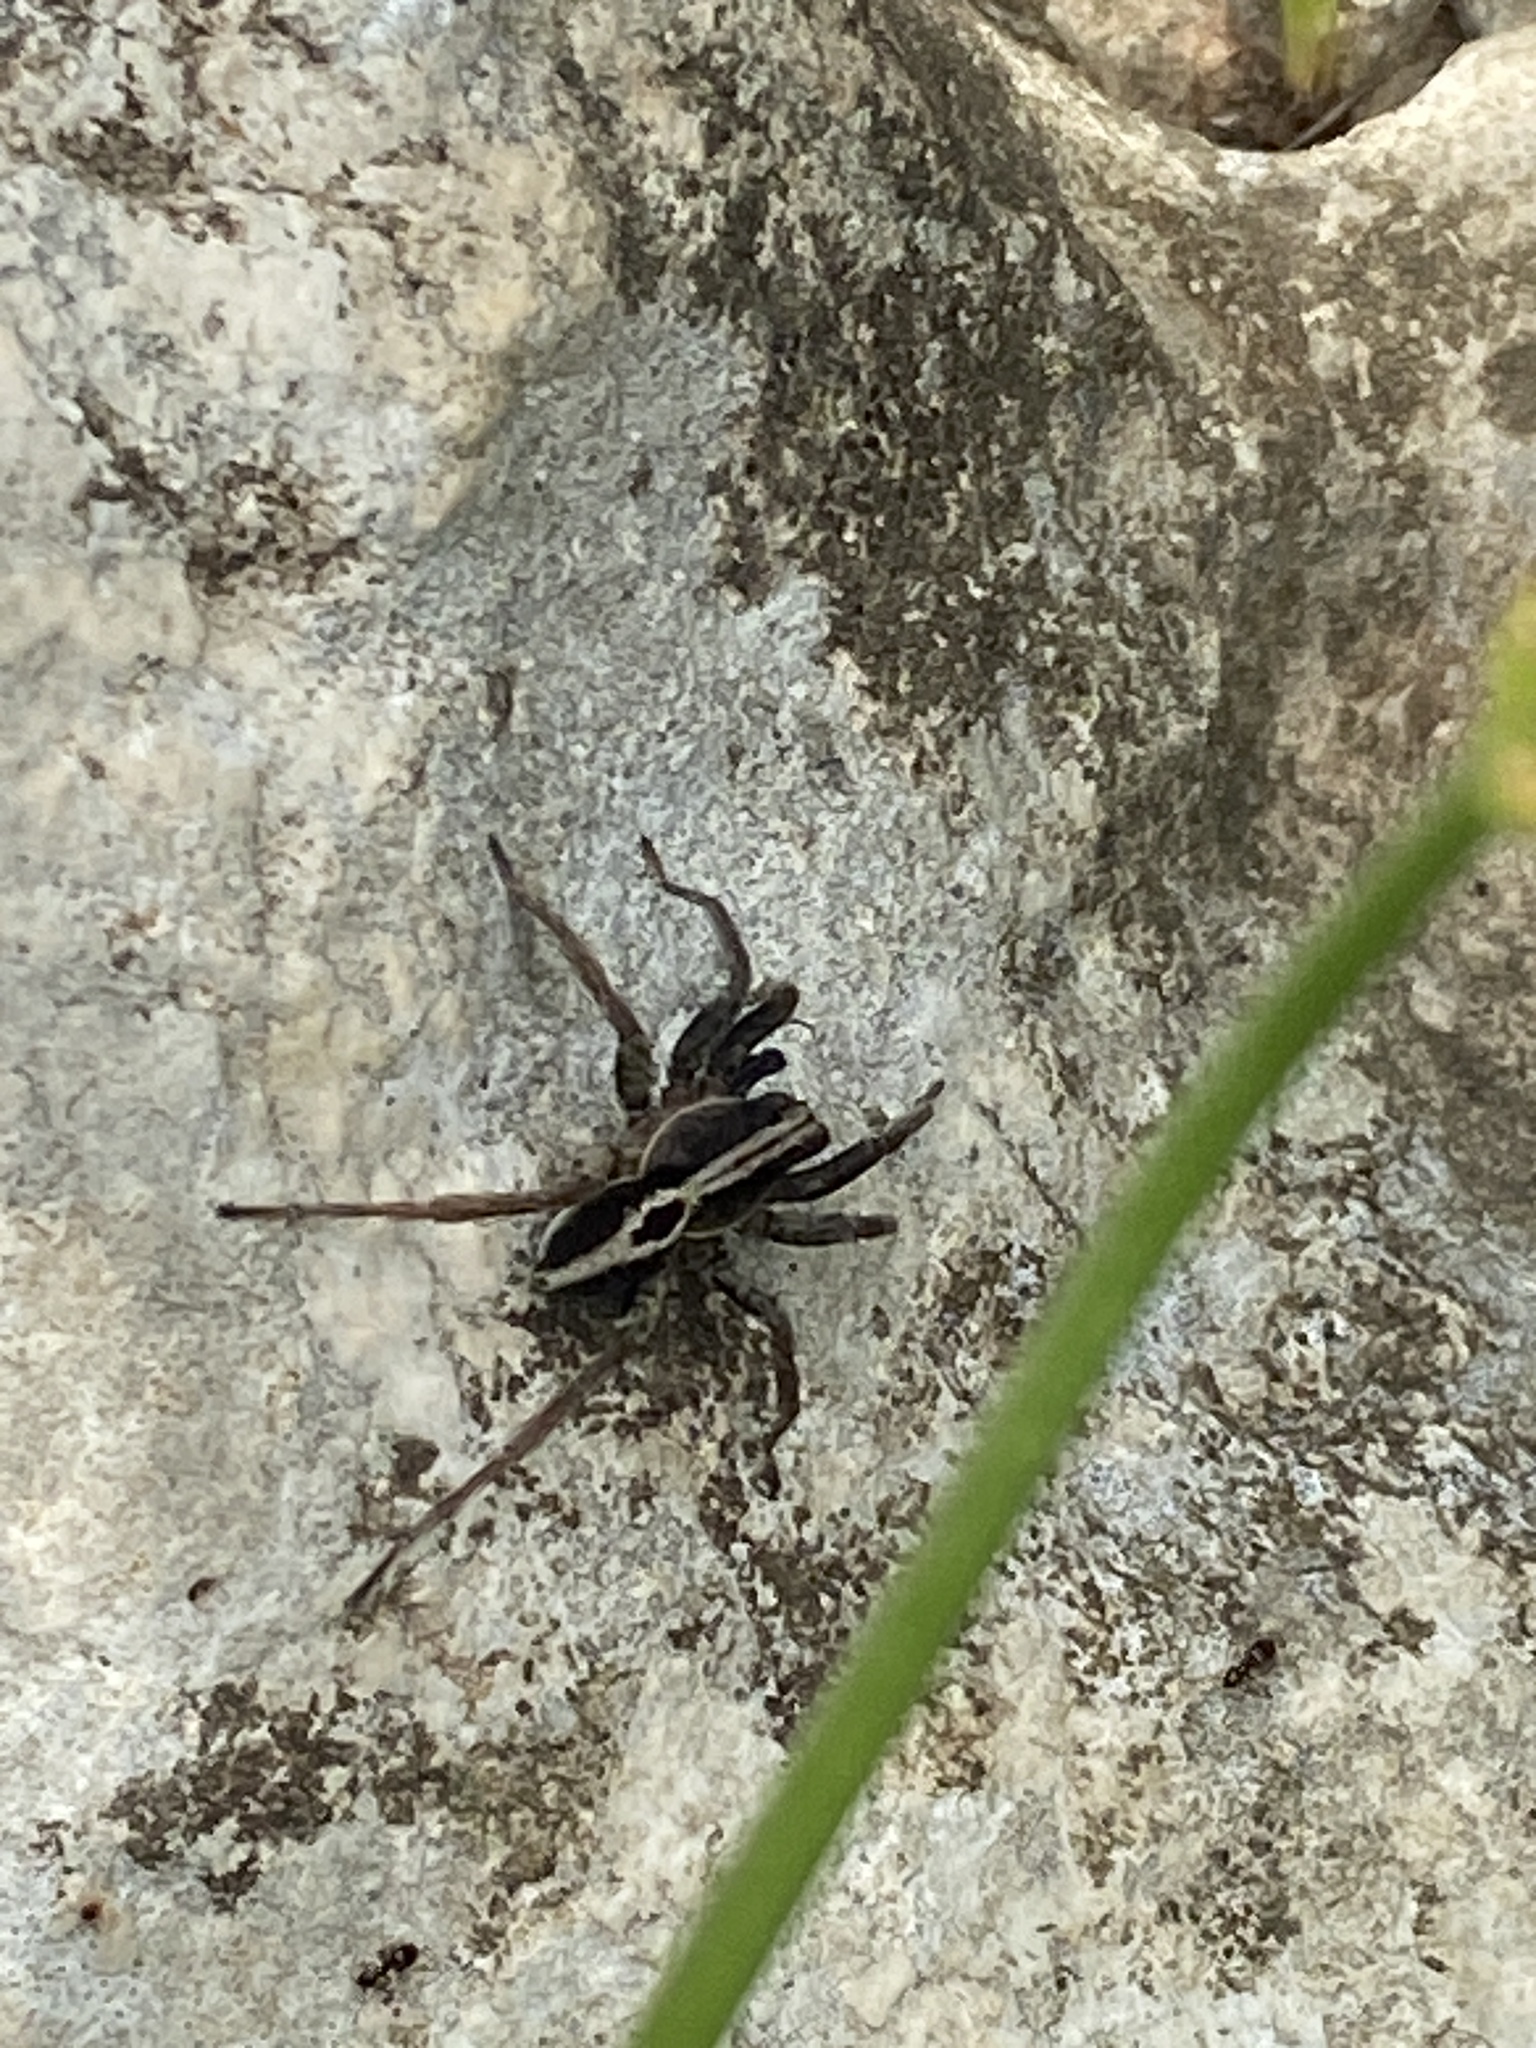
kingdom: Animalia
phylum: Arthropoda
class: Arachnida
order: Araneae
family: Lycosidae
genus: Alopecosa
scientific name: Alopecosa albofasciata
